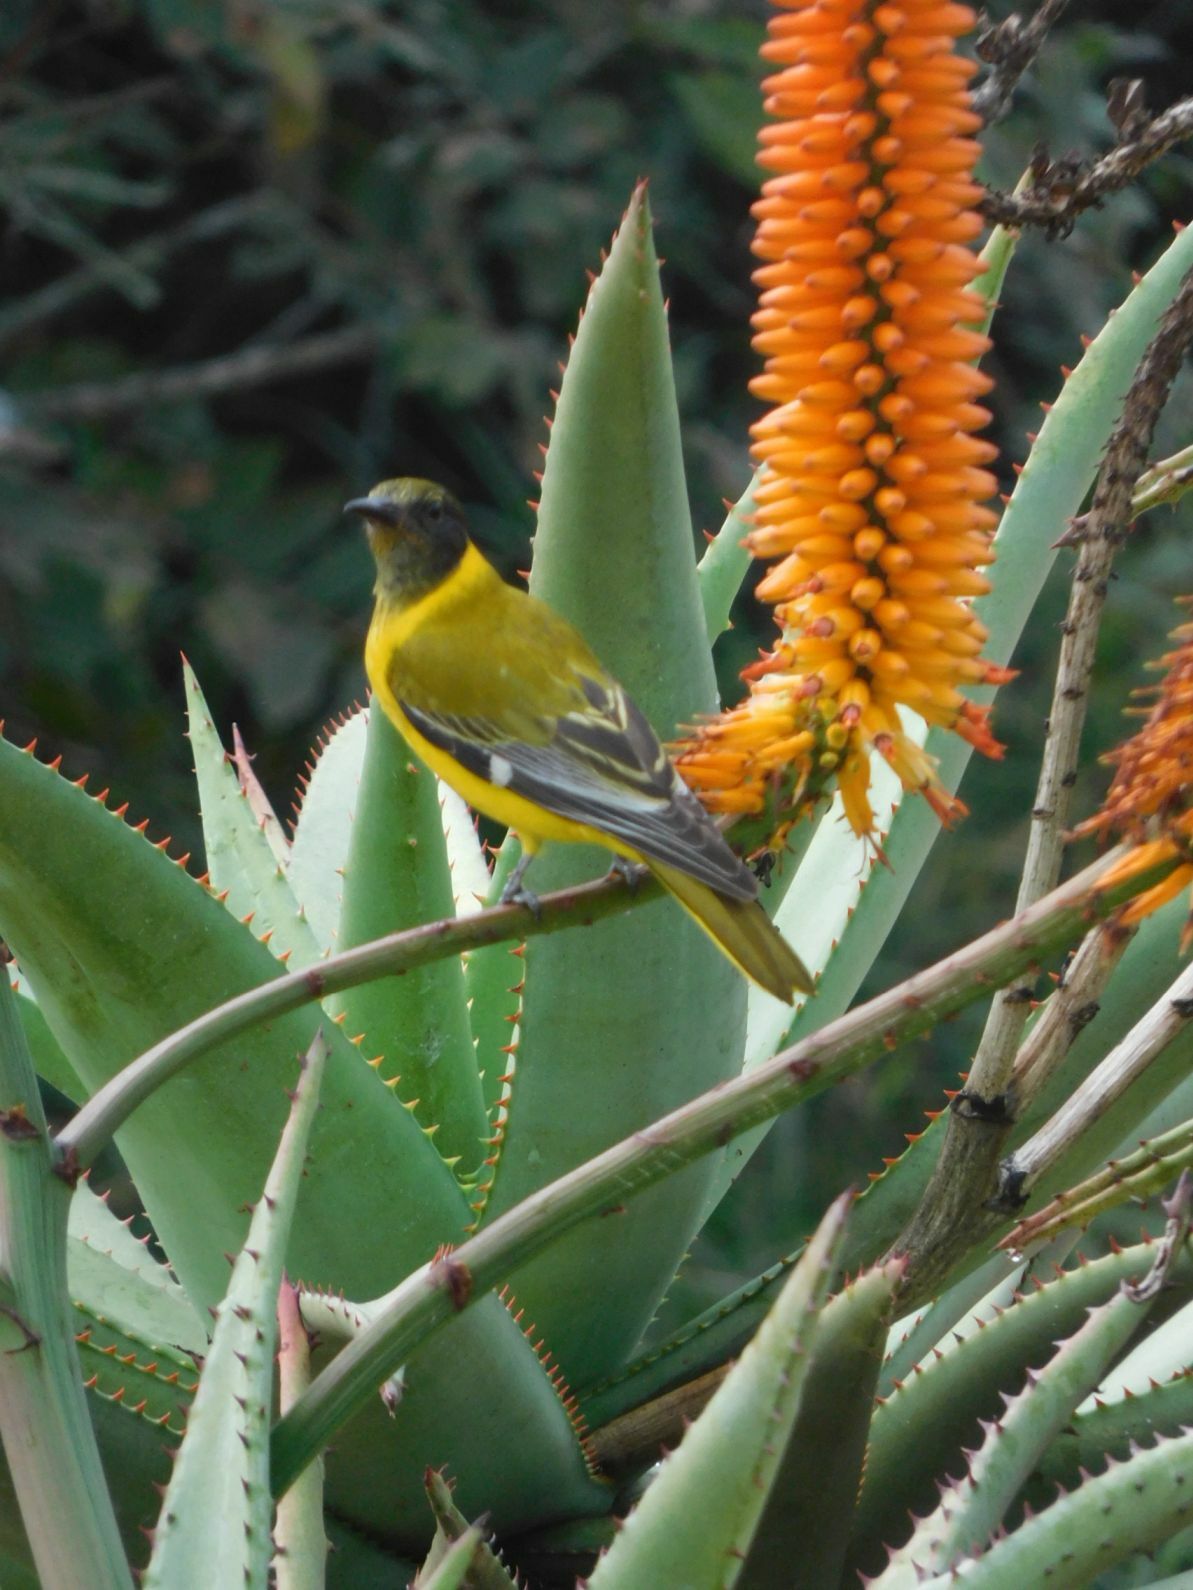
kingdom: Animalia
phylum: Chordata
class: Aves
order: Passeriformes
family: Oriolidae
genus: Oriolus
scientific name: Oriolus larvatus
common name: Black-headed oriole
